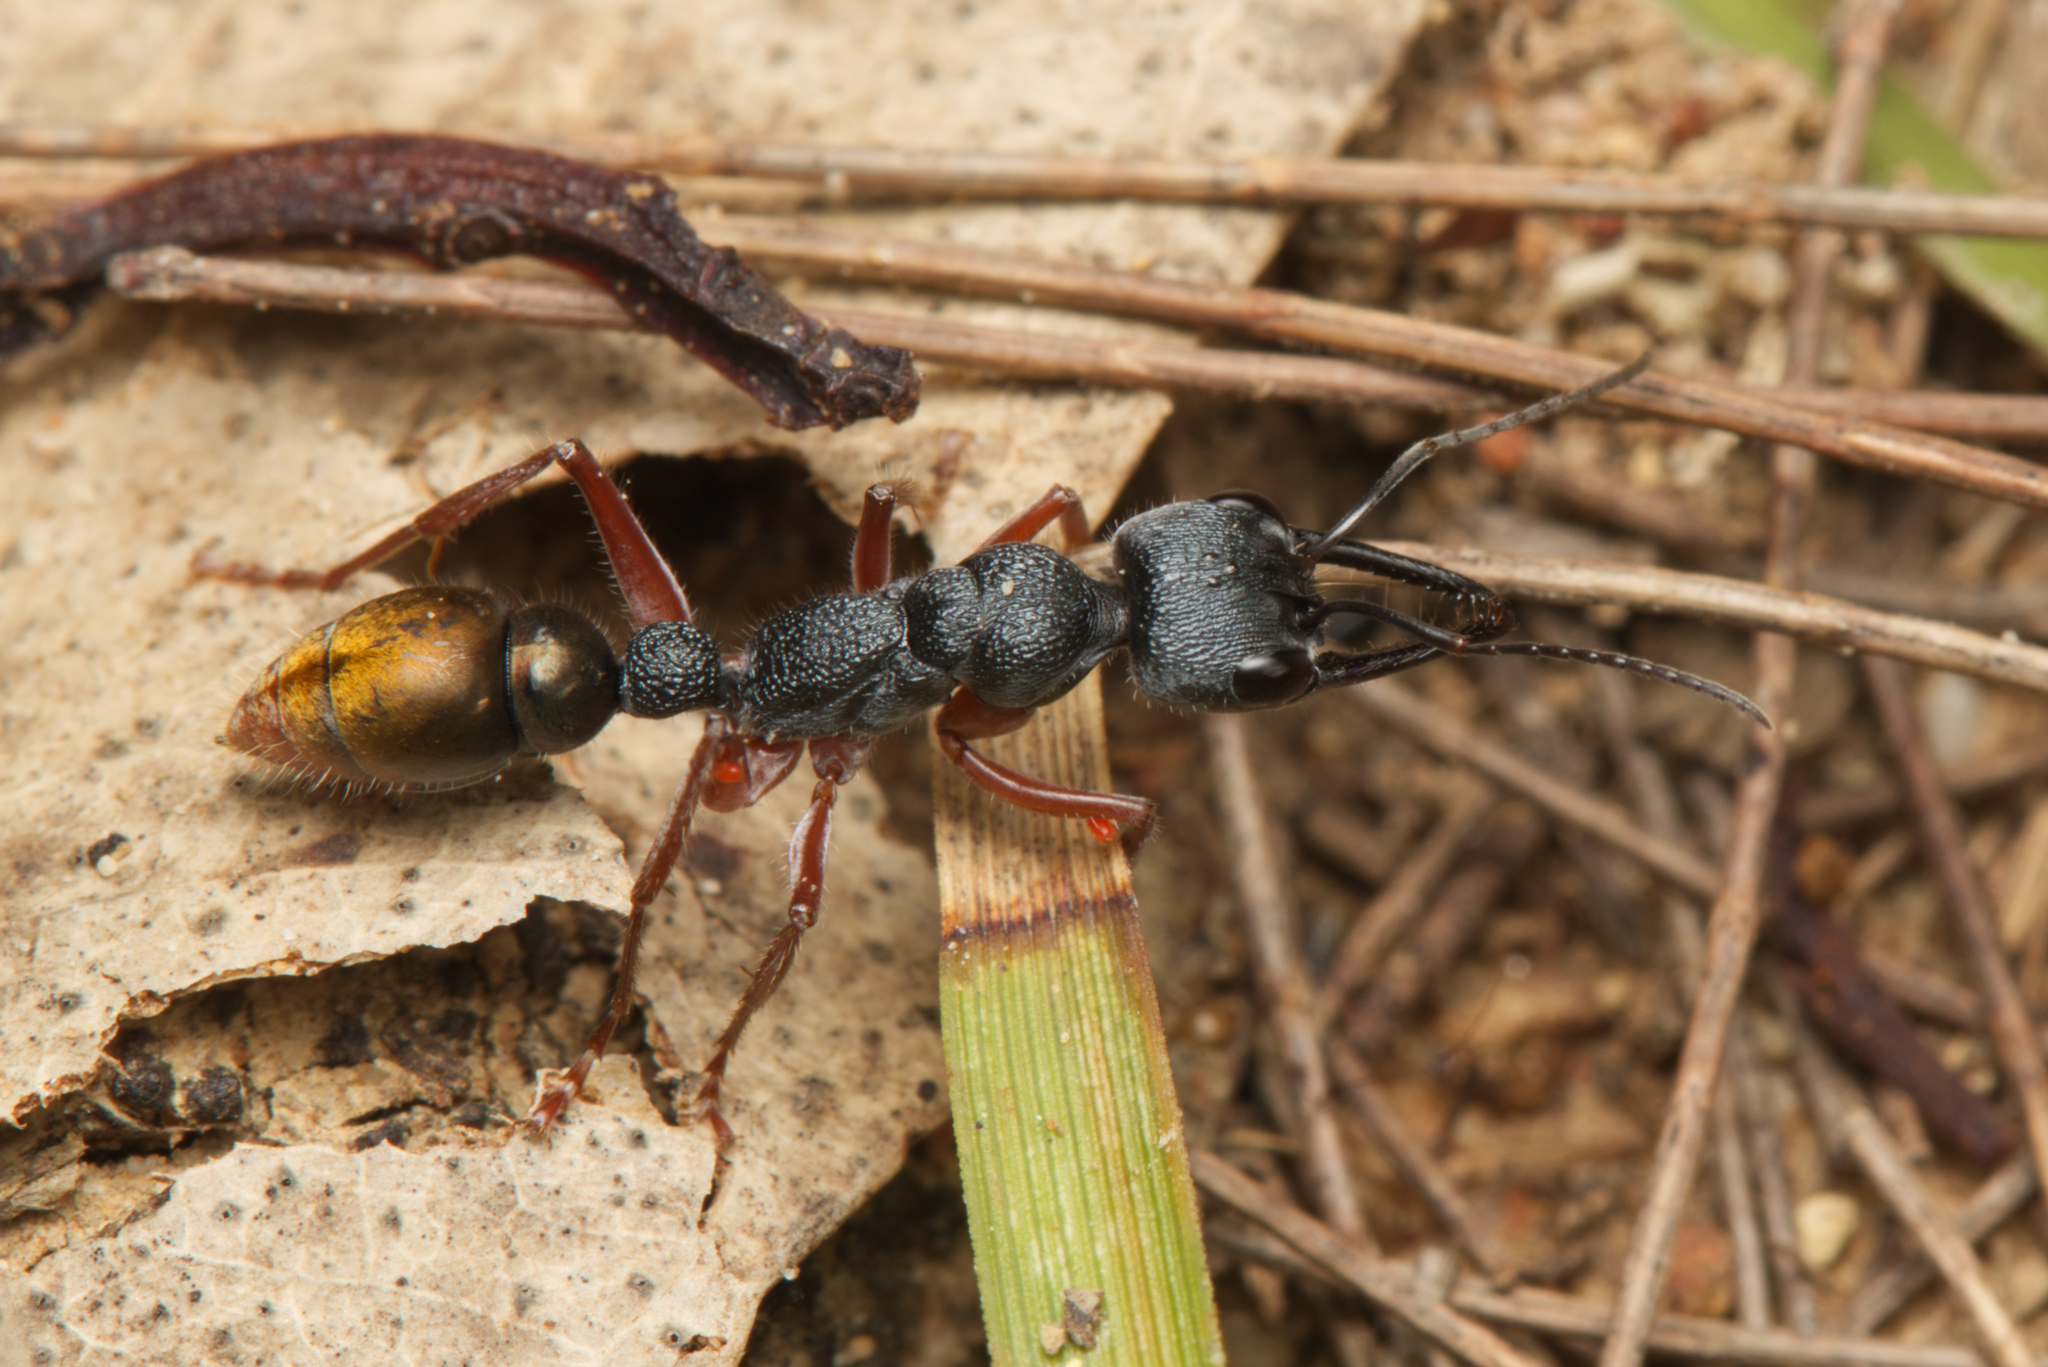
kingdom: Animalia
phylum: Arthropoda
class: Insecta
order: Hymenoptera
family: Formicidae
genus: Myrmecia
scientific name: Myrmecia fulviculis
